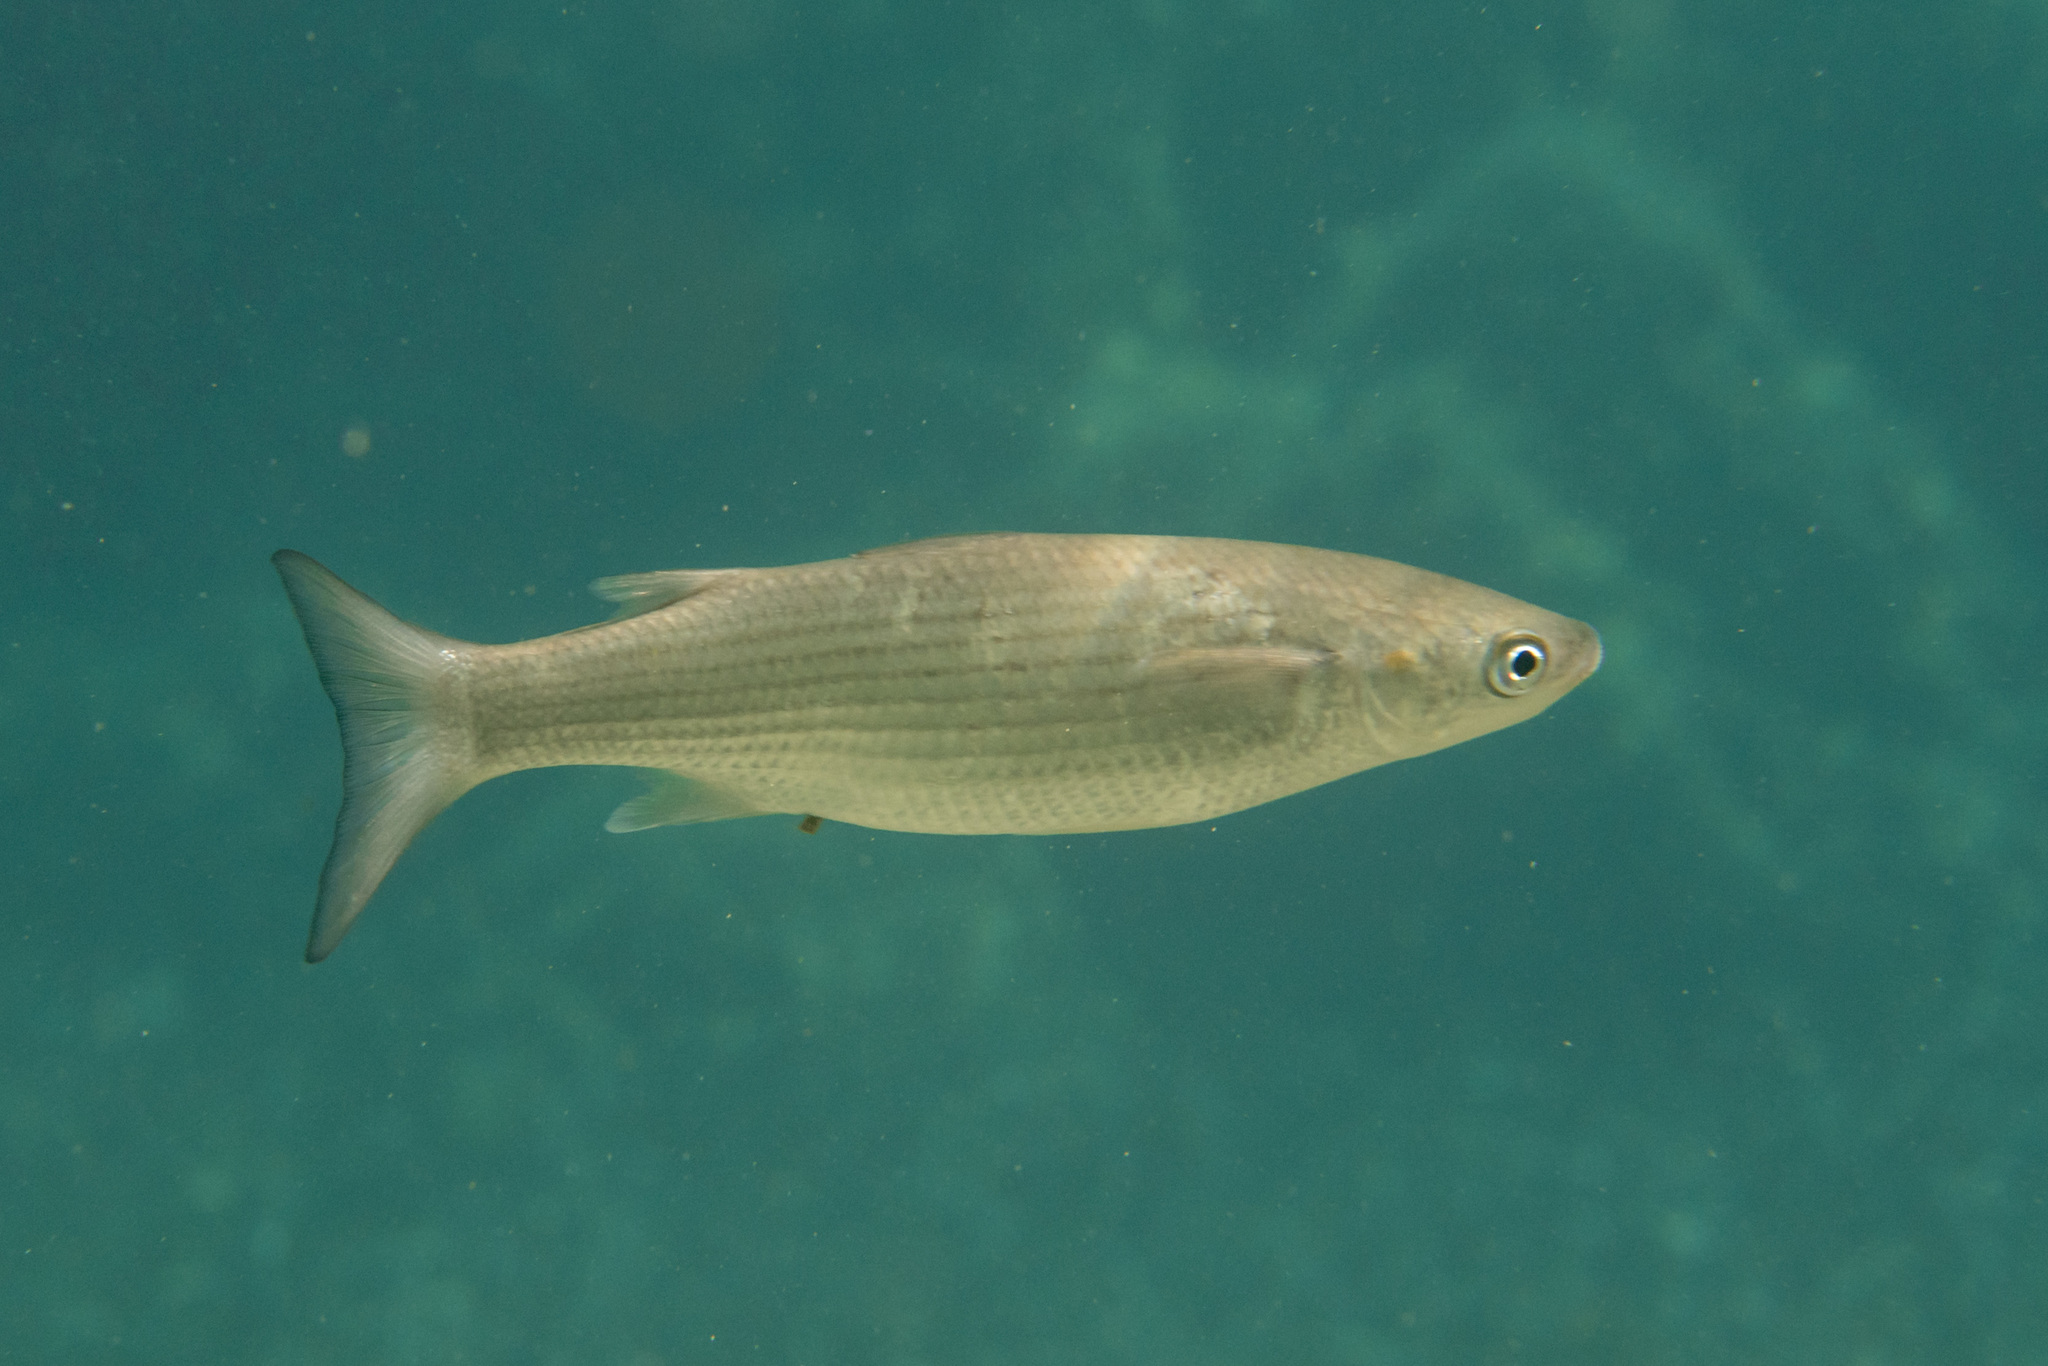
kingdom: Animalia
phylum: Chordata
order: Mugiliformes
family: Mugilidae
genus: Chelon
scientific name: Chelon labrosus
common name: Thick-lipped mullet
